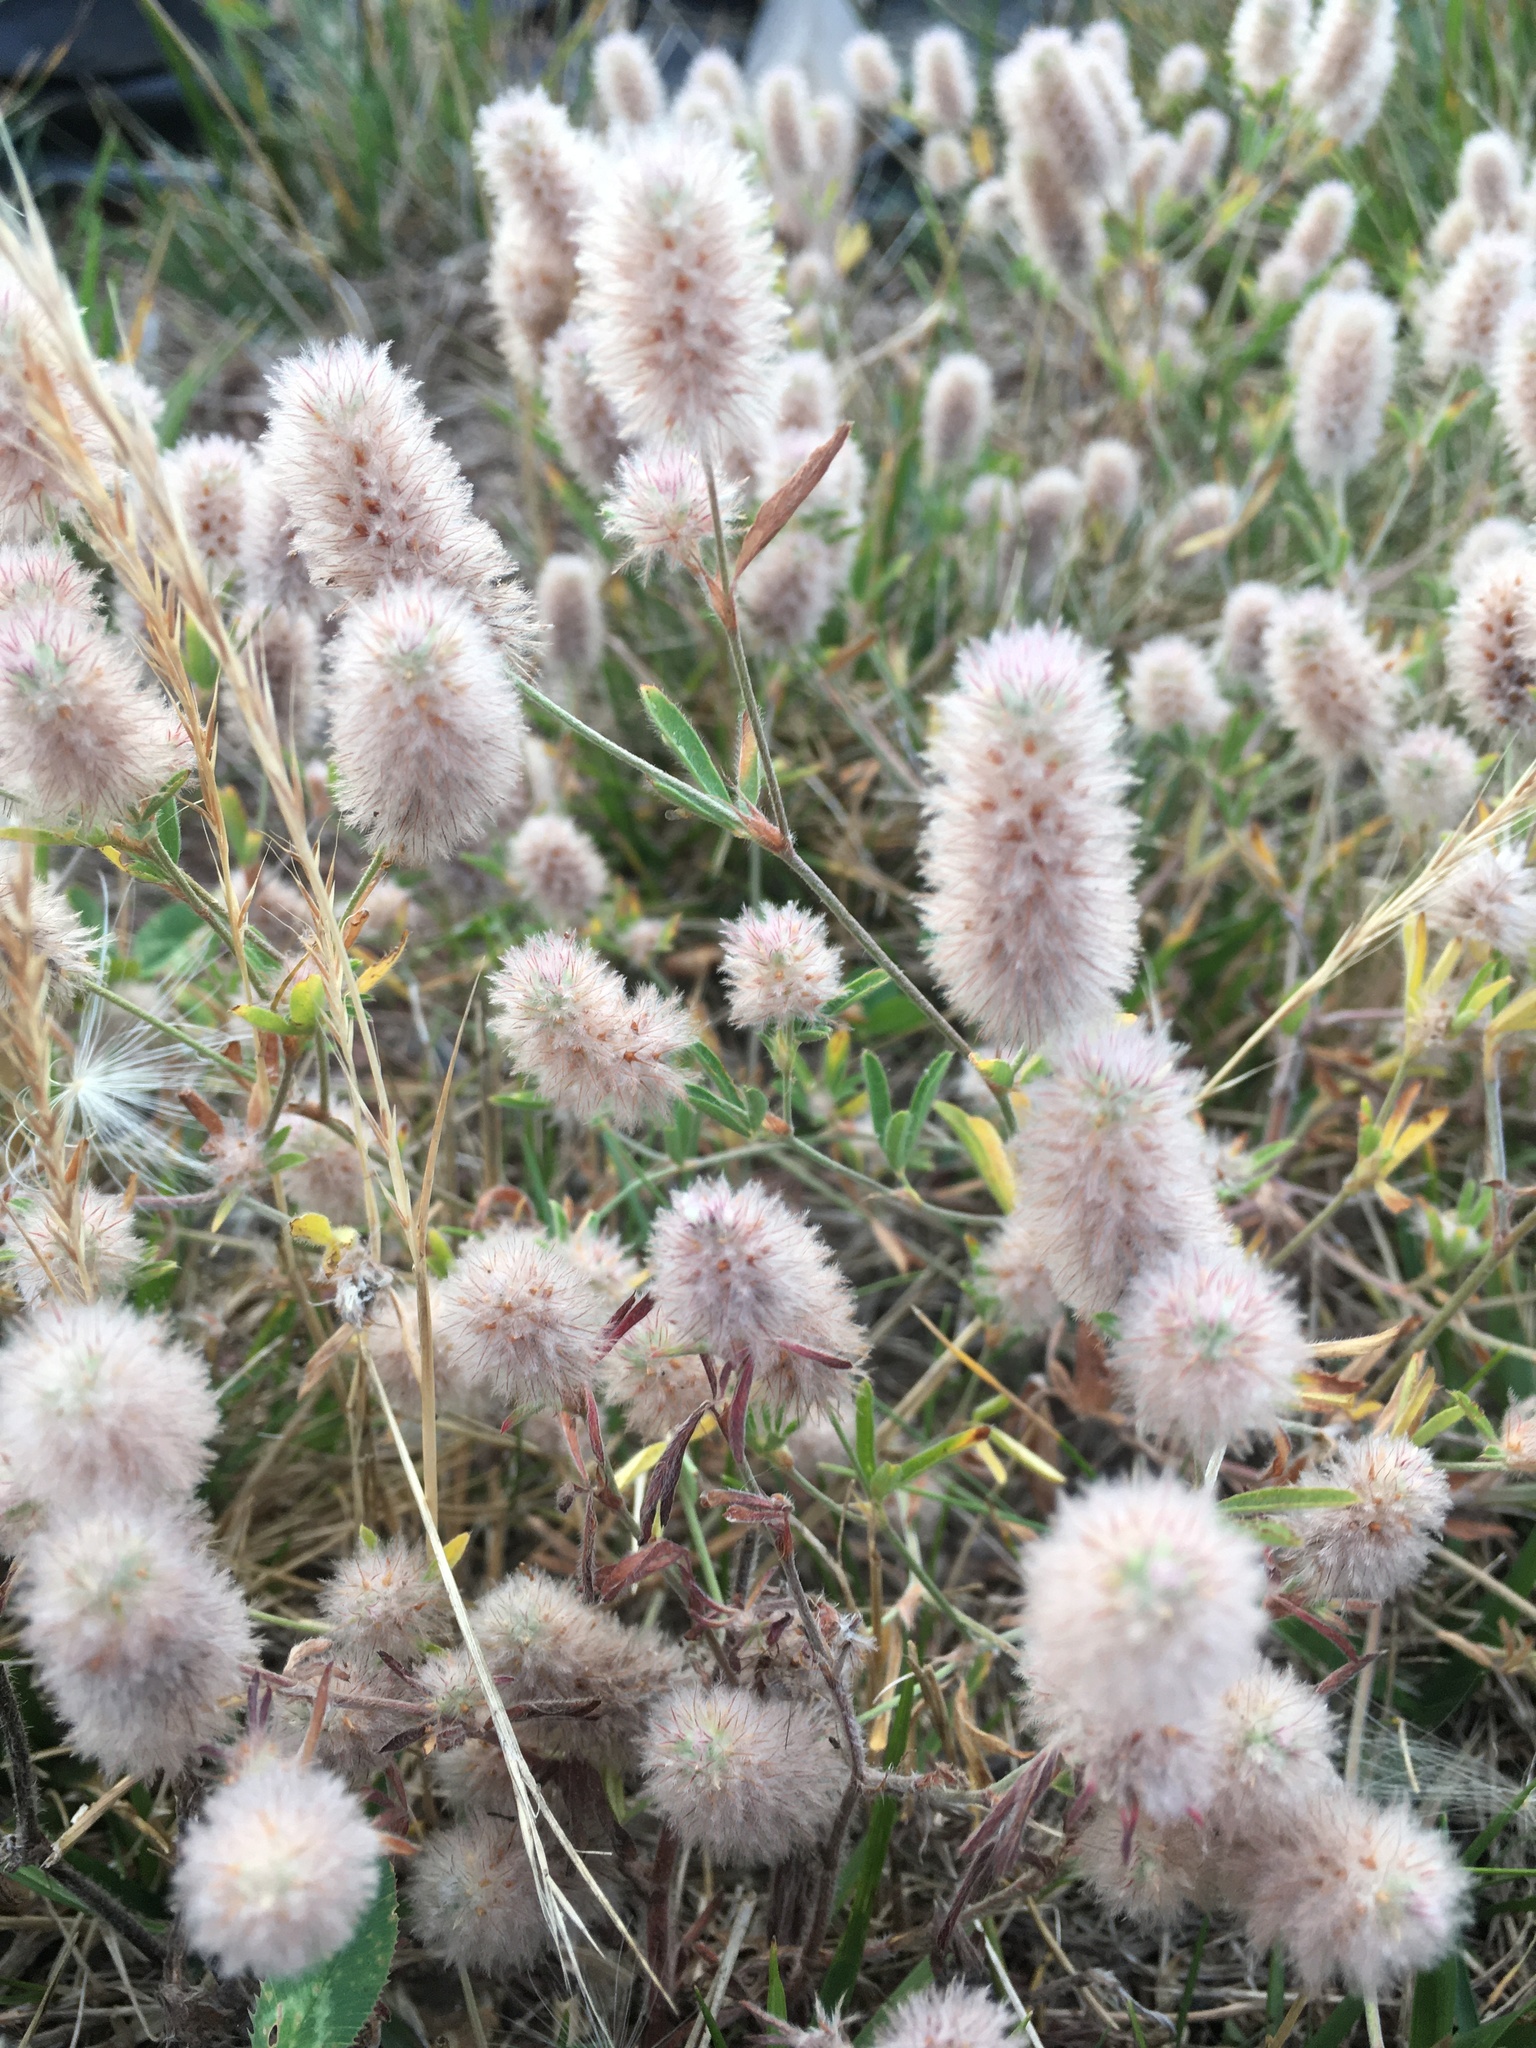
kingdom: Plantae
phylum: Tracheophyta
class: Magnoliopsida
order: Fabales
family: Fabaceae
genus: Trifolium
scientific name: Trifolium arvense
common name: Hare's-foot clover
